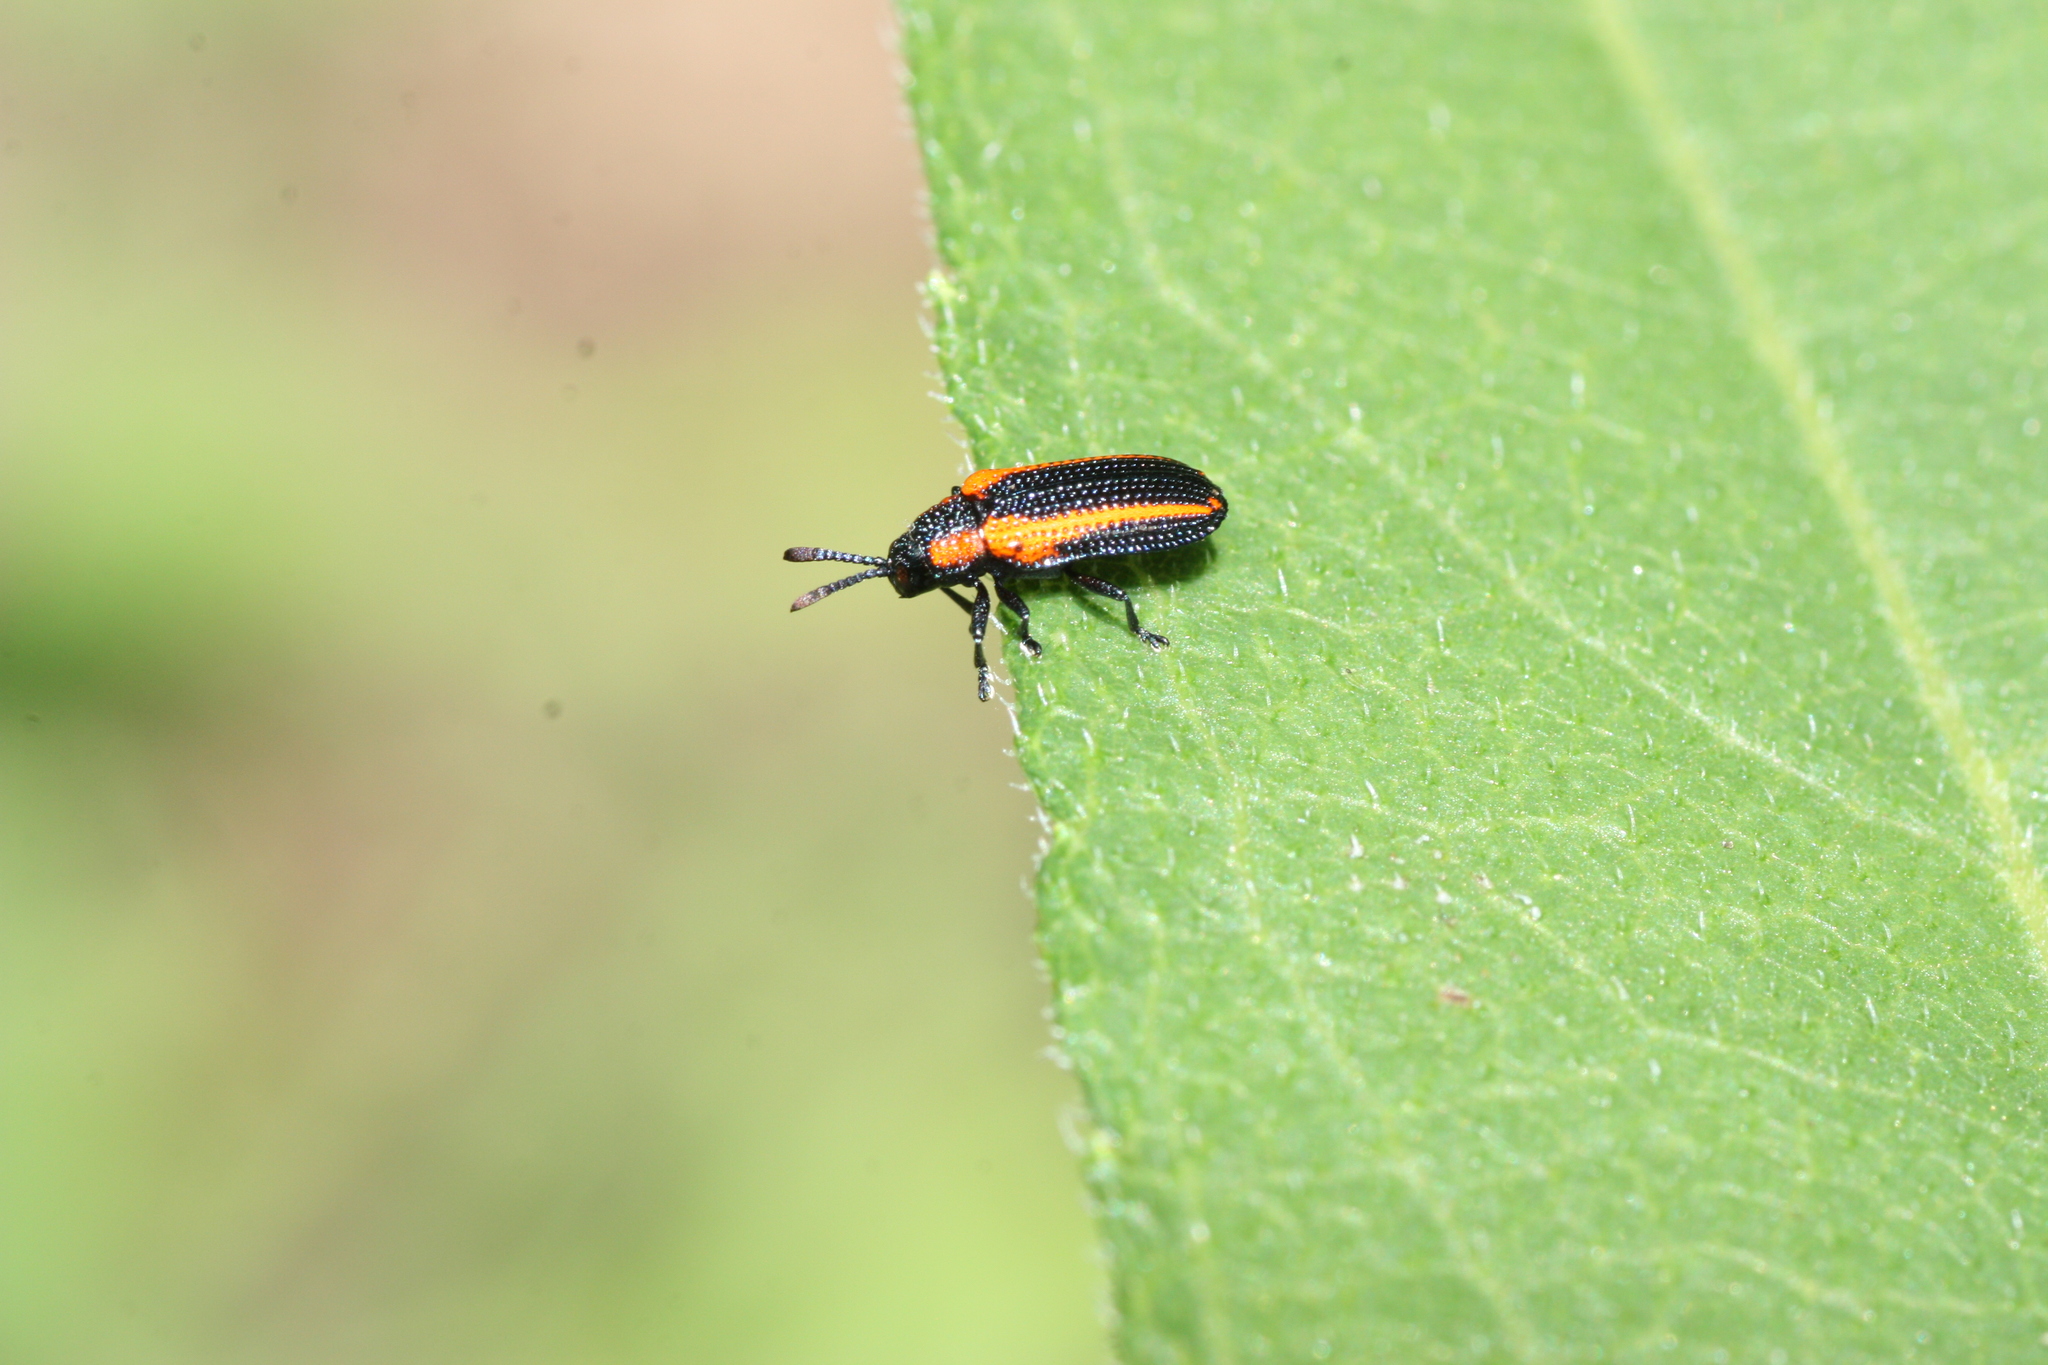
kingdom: Animalia
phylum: Arthropoda
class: Insecta
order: Coleoptera
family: Chrysomelidae
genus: Microrhopala
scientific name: Microrhopala rileyi
